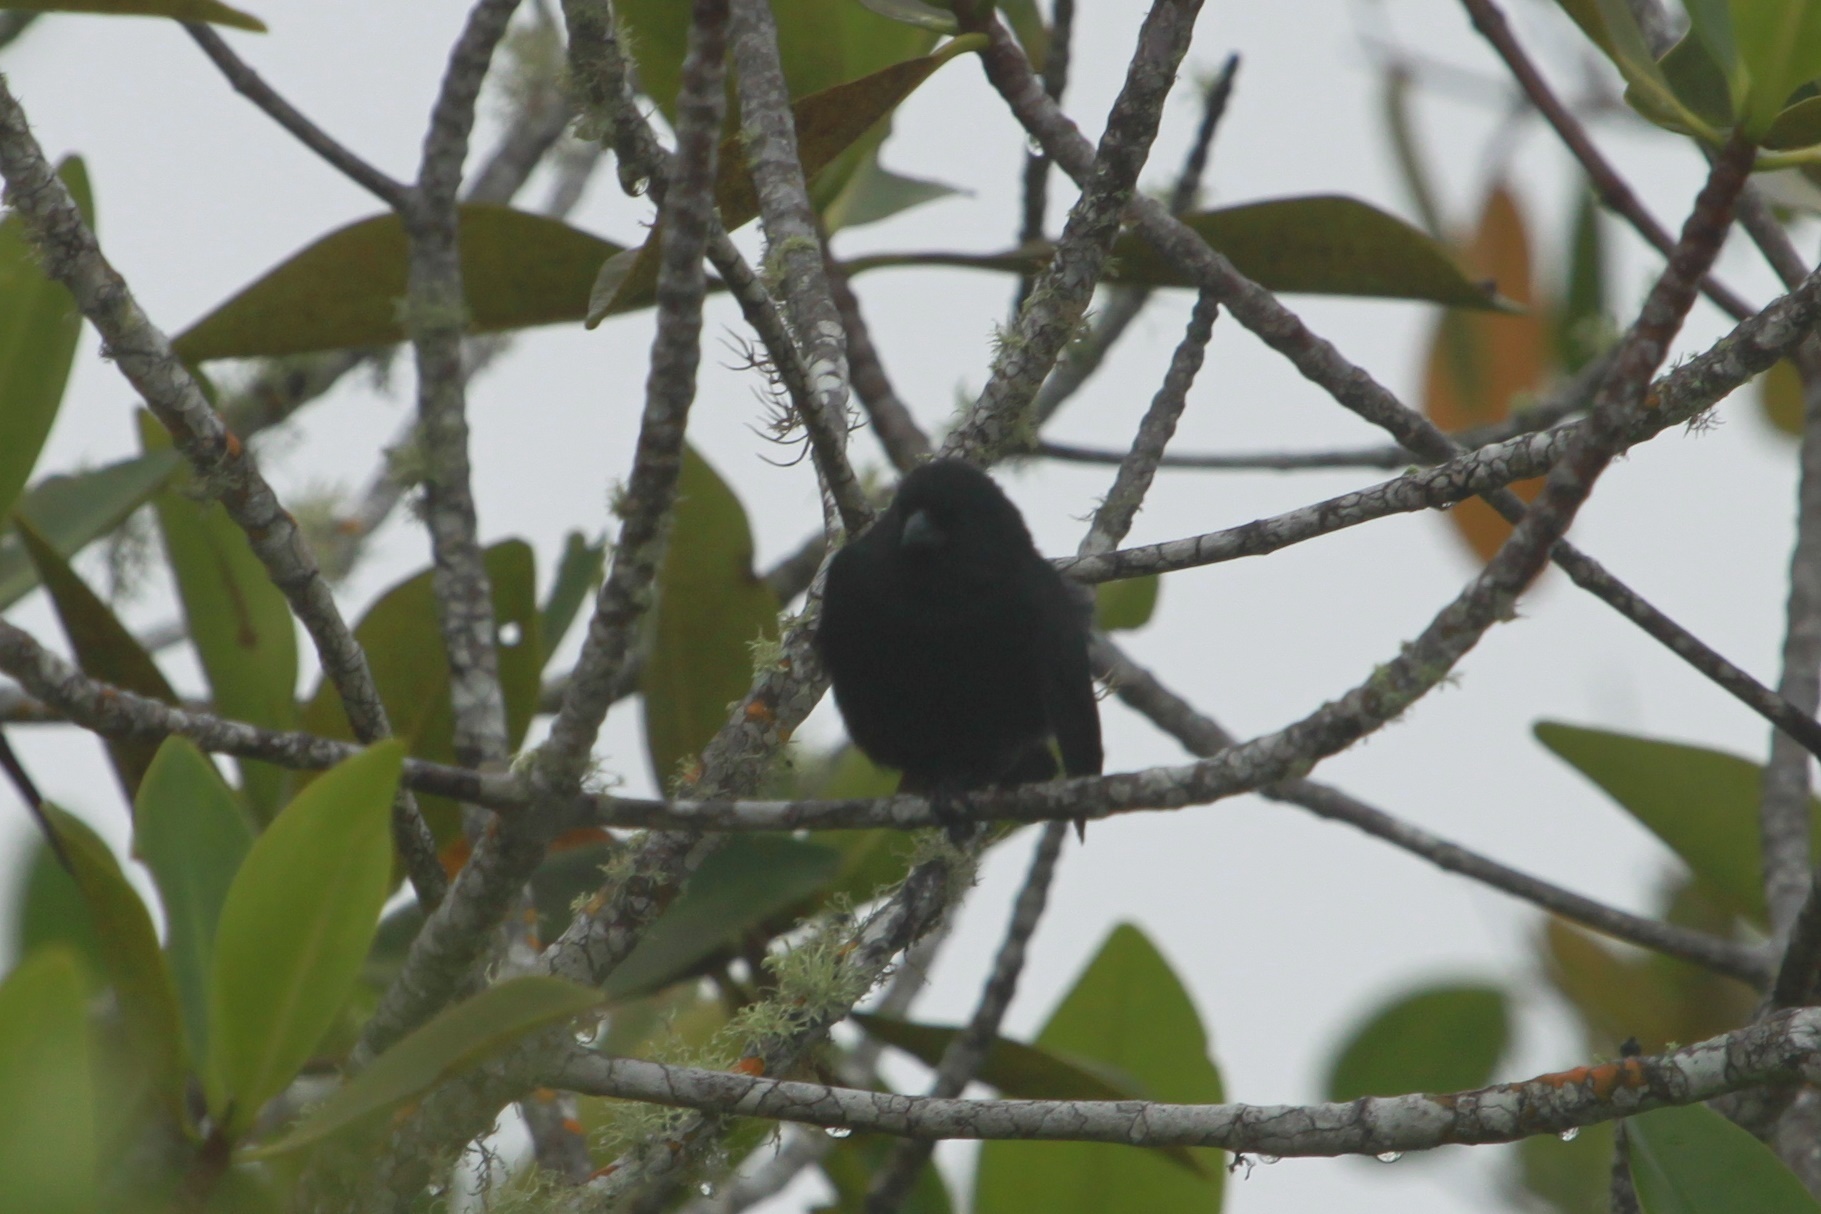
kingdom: Animalia
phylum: Chordata
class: Aves
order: Passeriformes
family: Thraupidae
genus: Geospiza
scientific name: Geospiza fuliginosa
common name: Small ground finch
